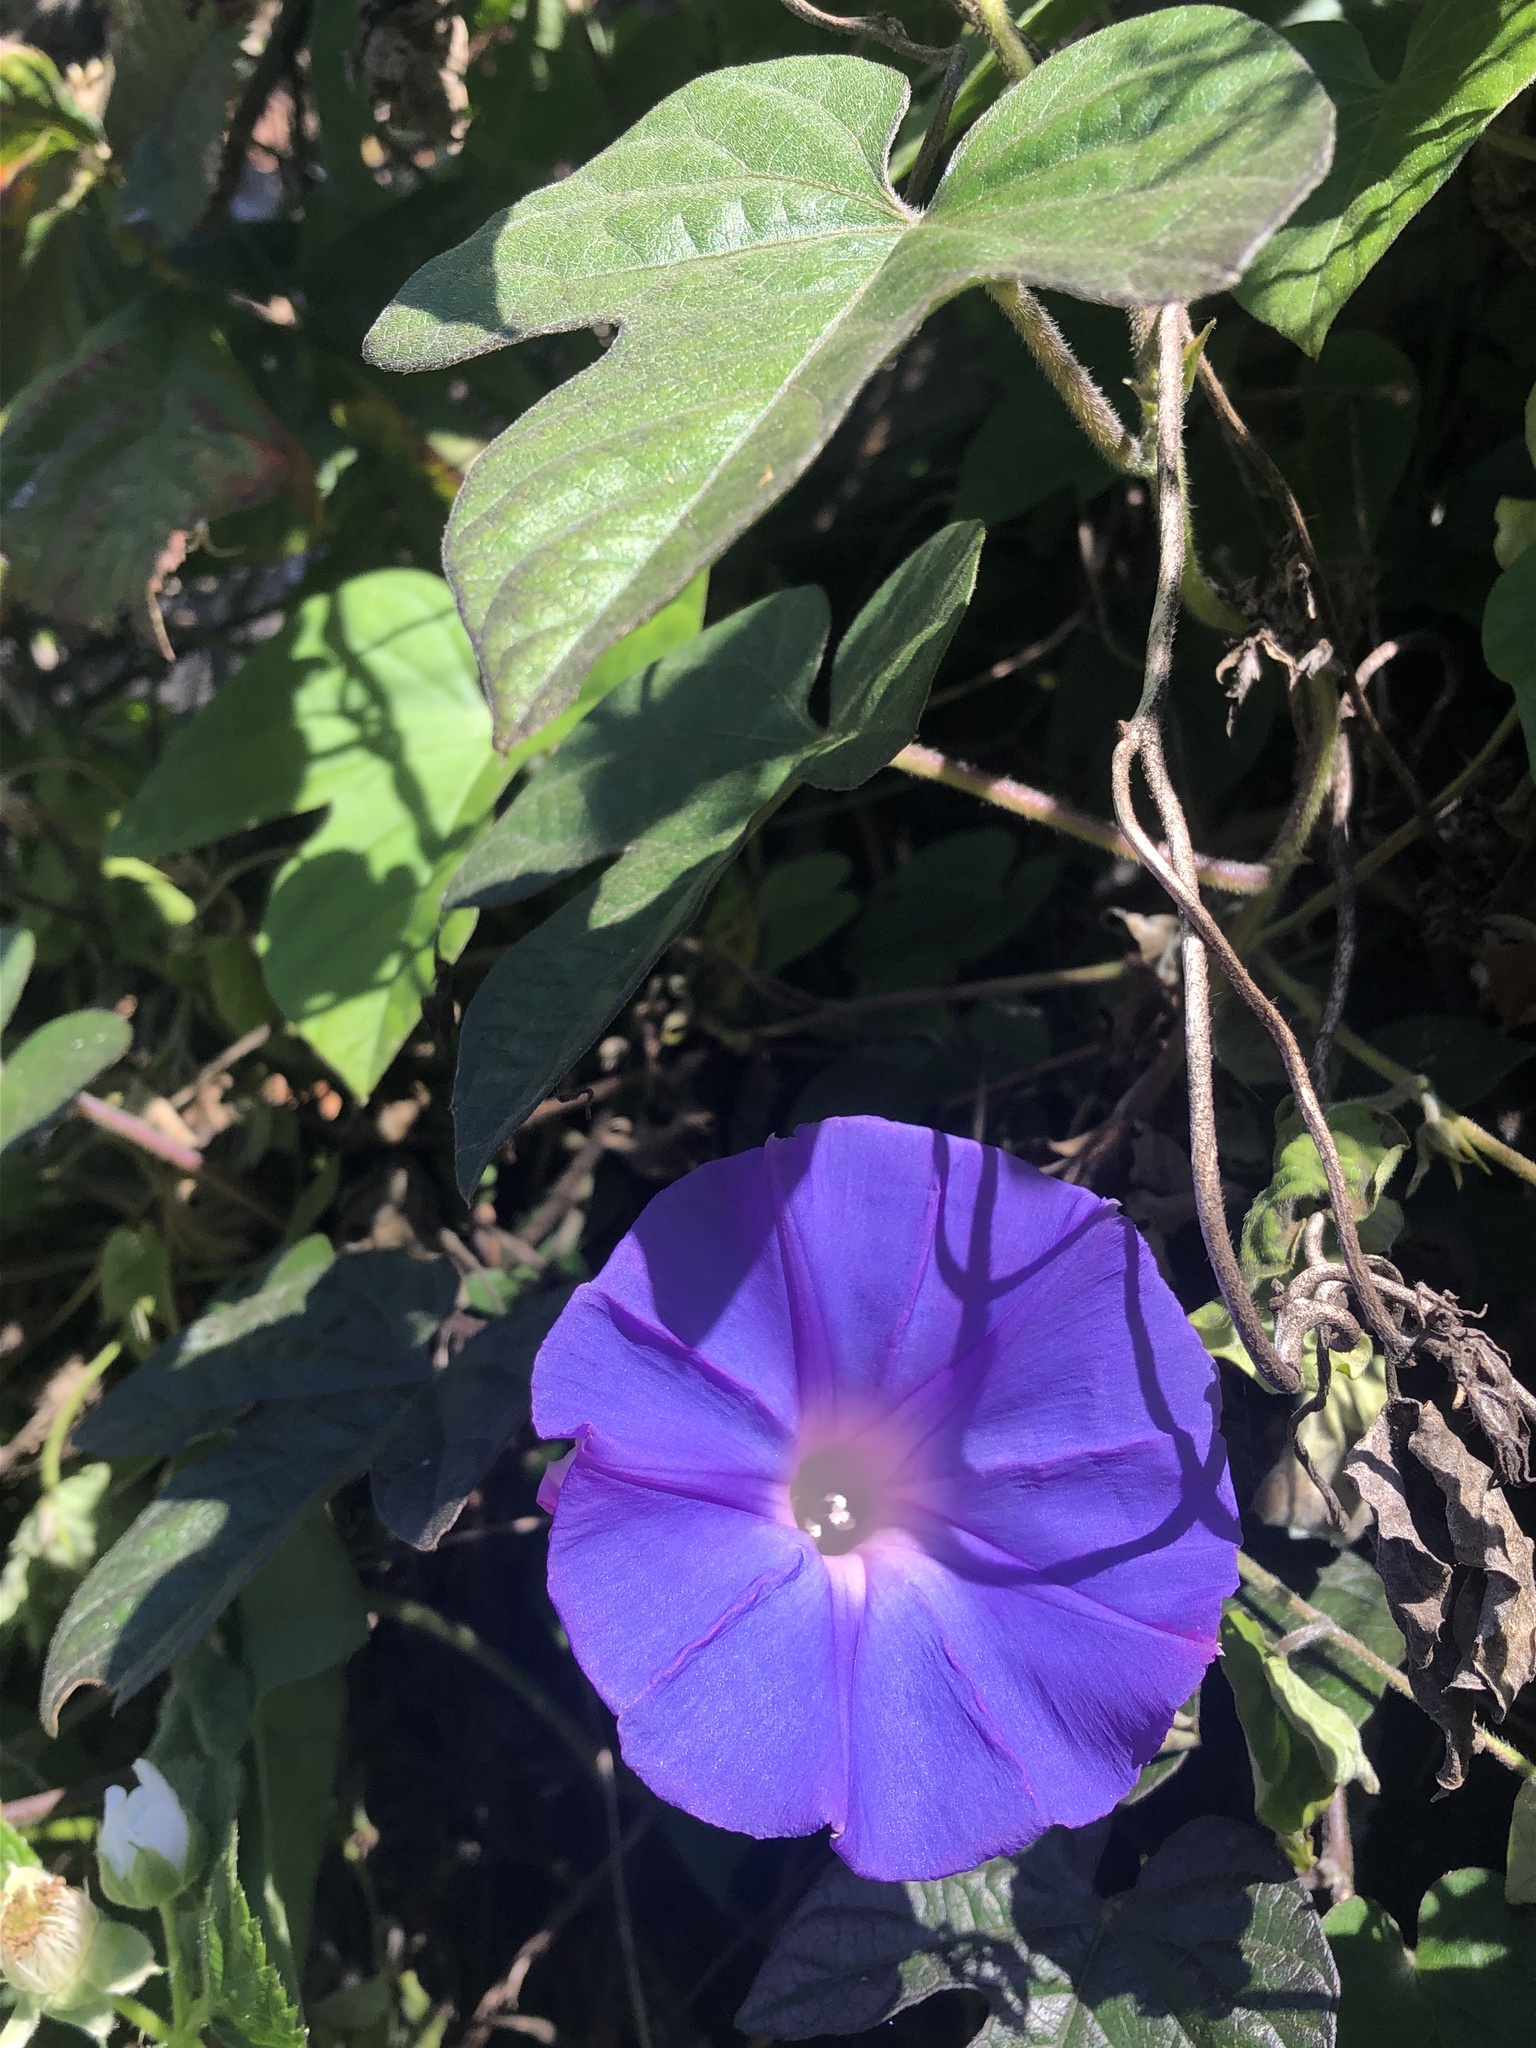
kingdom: Plantae
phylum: Tracheophyta
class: Magnoliopsida
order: Solanales
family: Convolvulaceae
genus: Ipomoea
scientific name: Ipomoea indica
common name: Blue dawnflower
